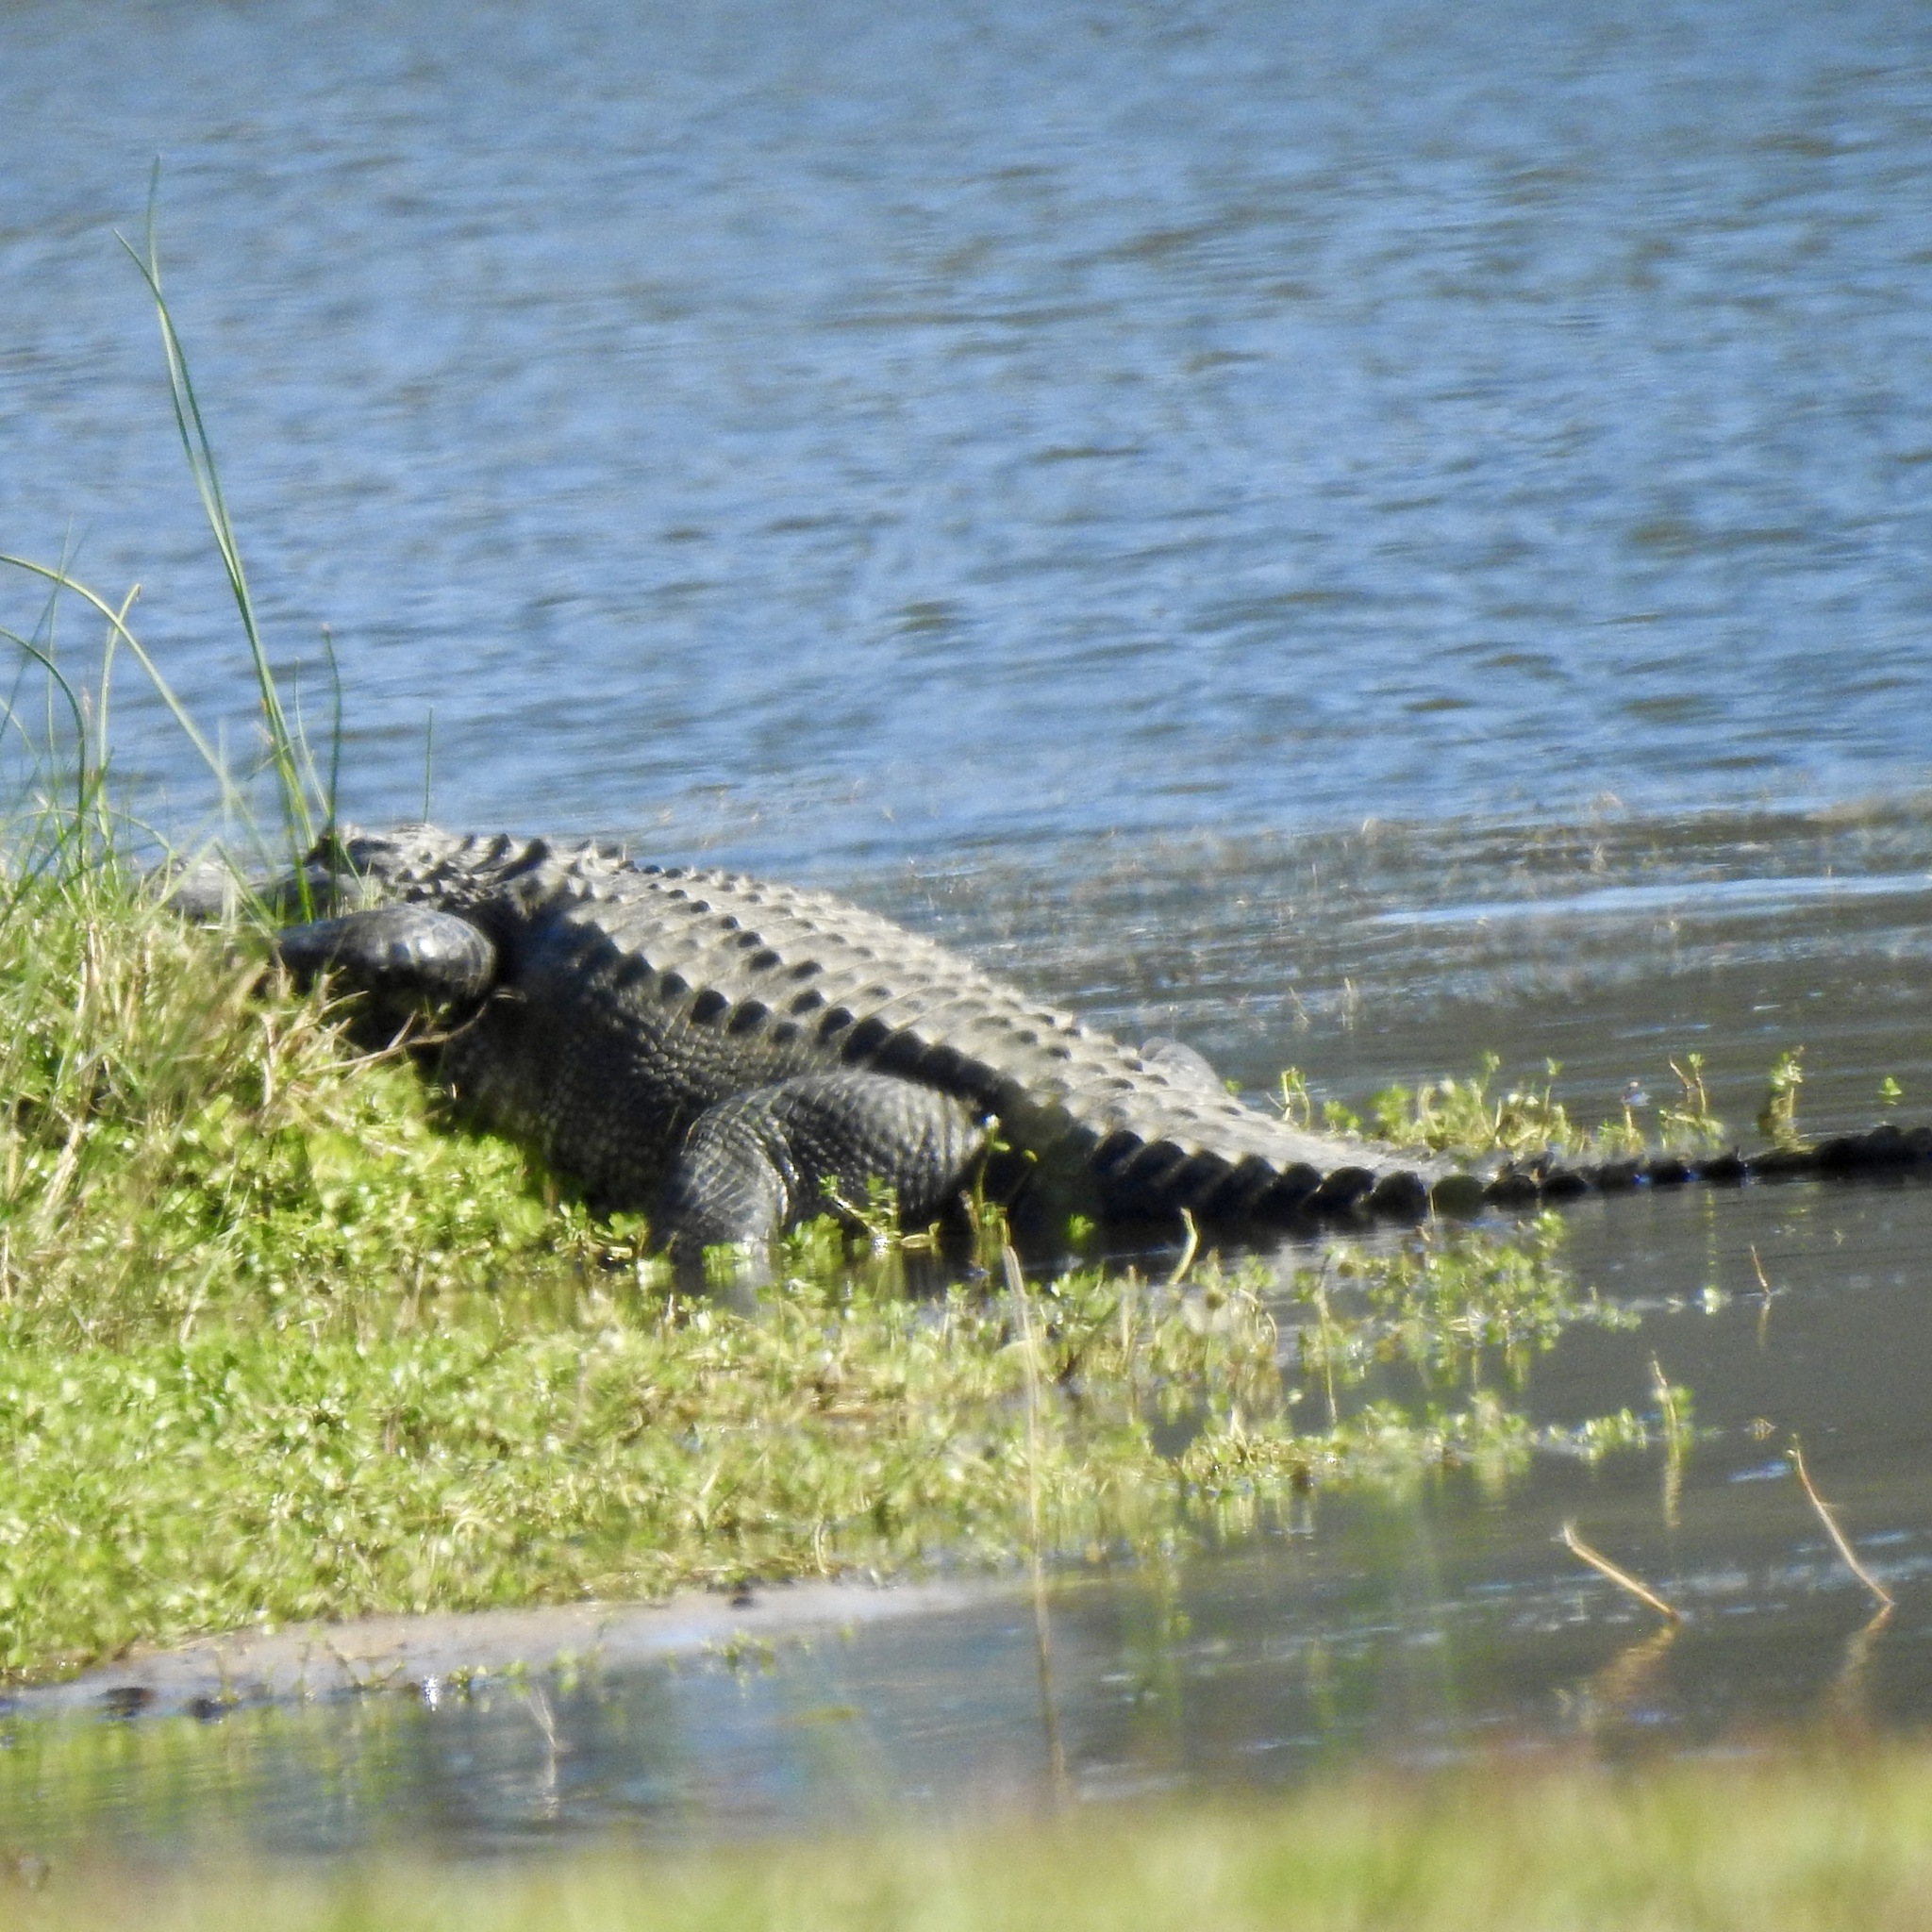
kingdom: Animalia
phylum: Chordata
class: Crocodylia
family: Alligatoridae
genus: Alligator
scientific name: Alligator mississippiensis
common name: American alligator
